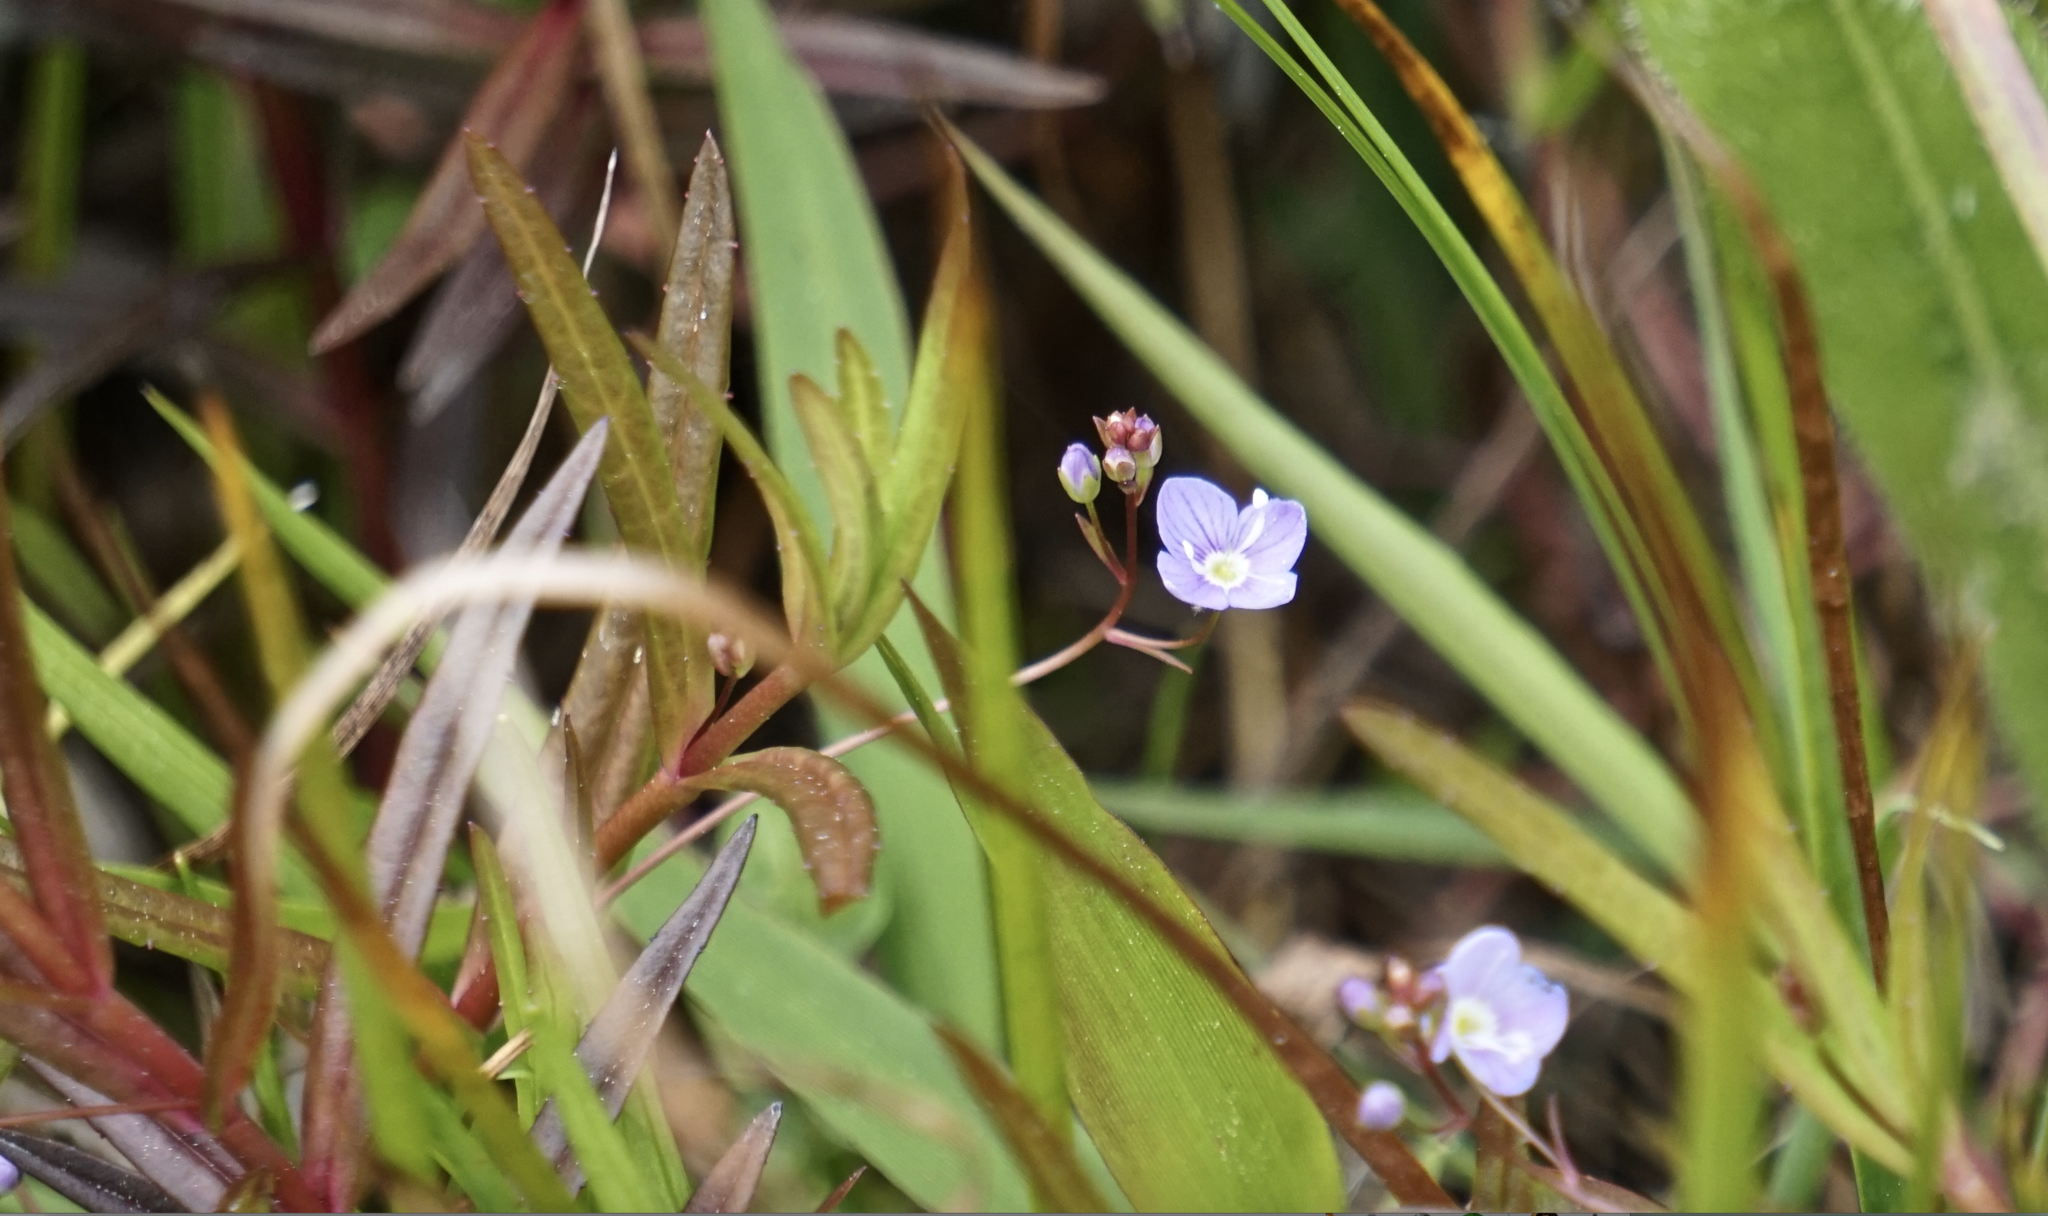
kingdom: Plantae
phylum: Tracheophyta
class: Magnoliopsida
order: Lamiales
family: Plantaginaceae
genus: Veronica
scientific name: Veronica scutellata
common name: Marsh speedwell
